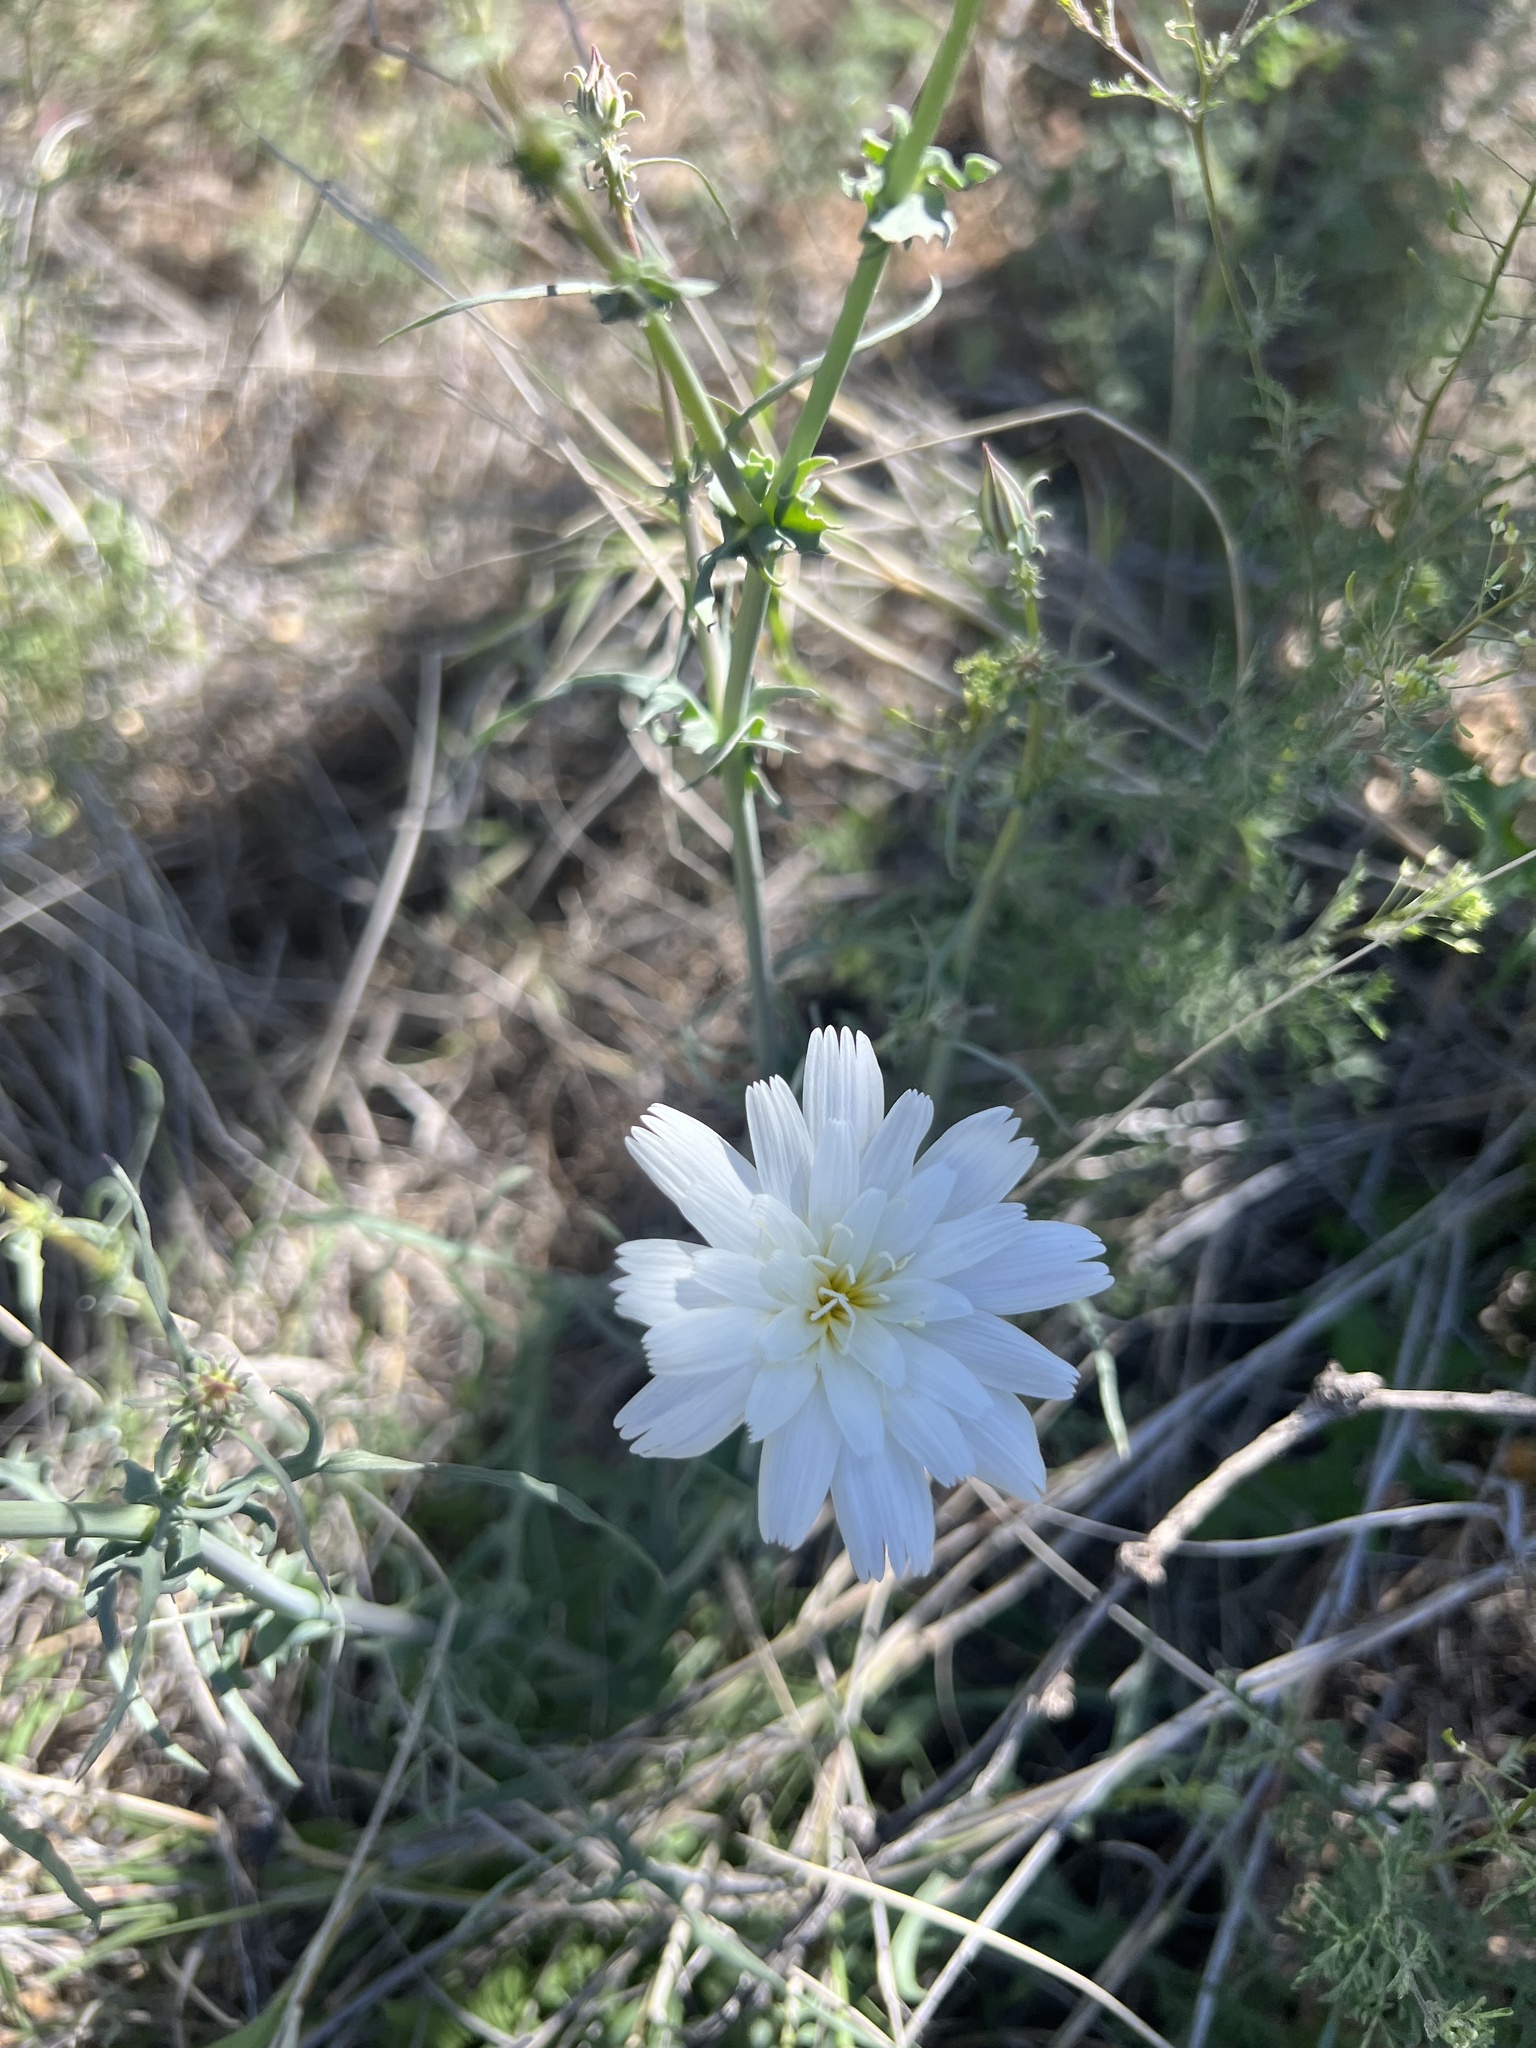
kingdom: Plantae
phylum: Tracheophyta
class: Magnoliopsida
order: Asterales
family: Asteraceae
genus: Rafinesquia
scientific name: Rafinesquia neomexicana
